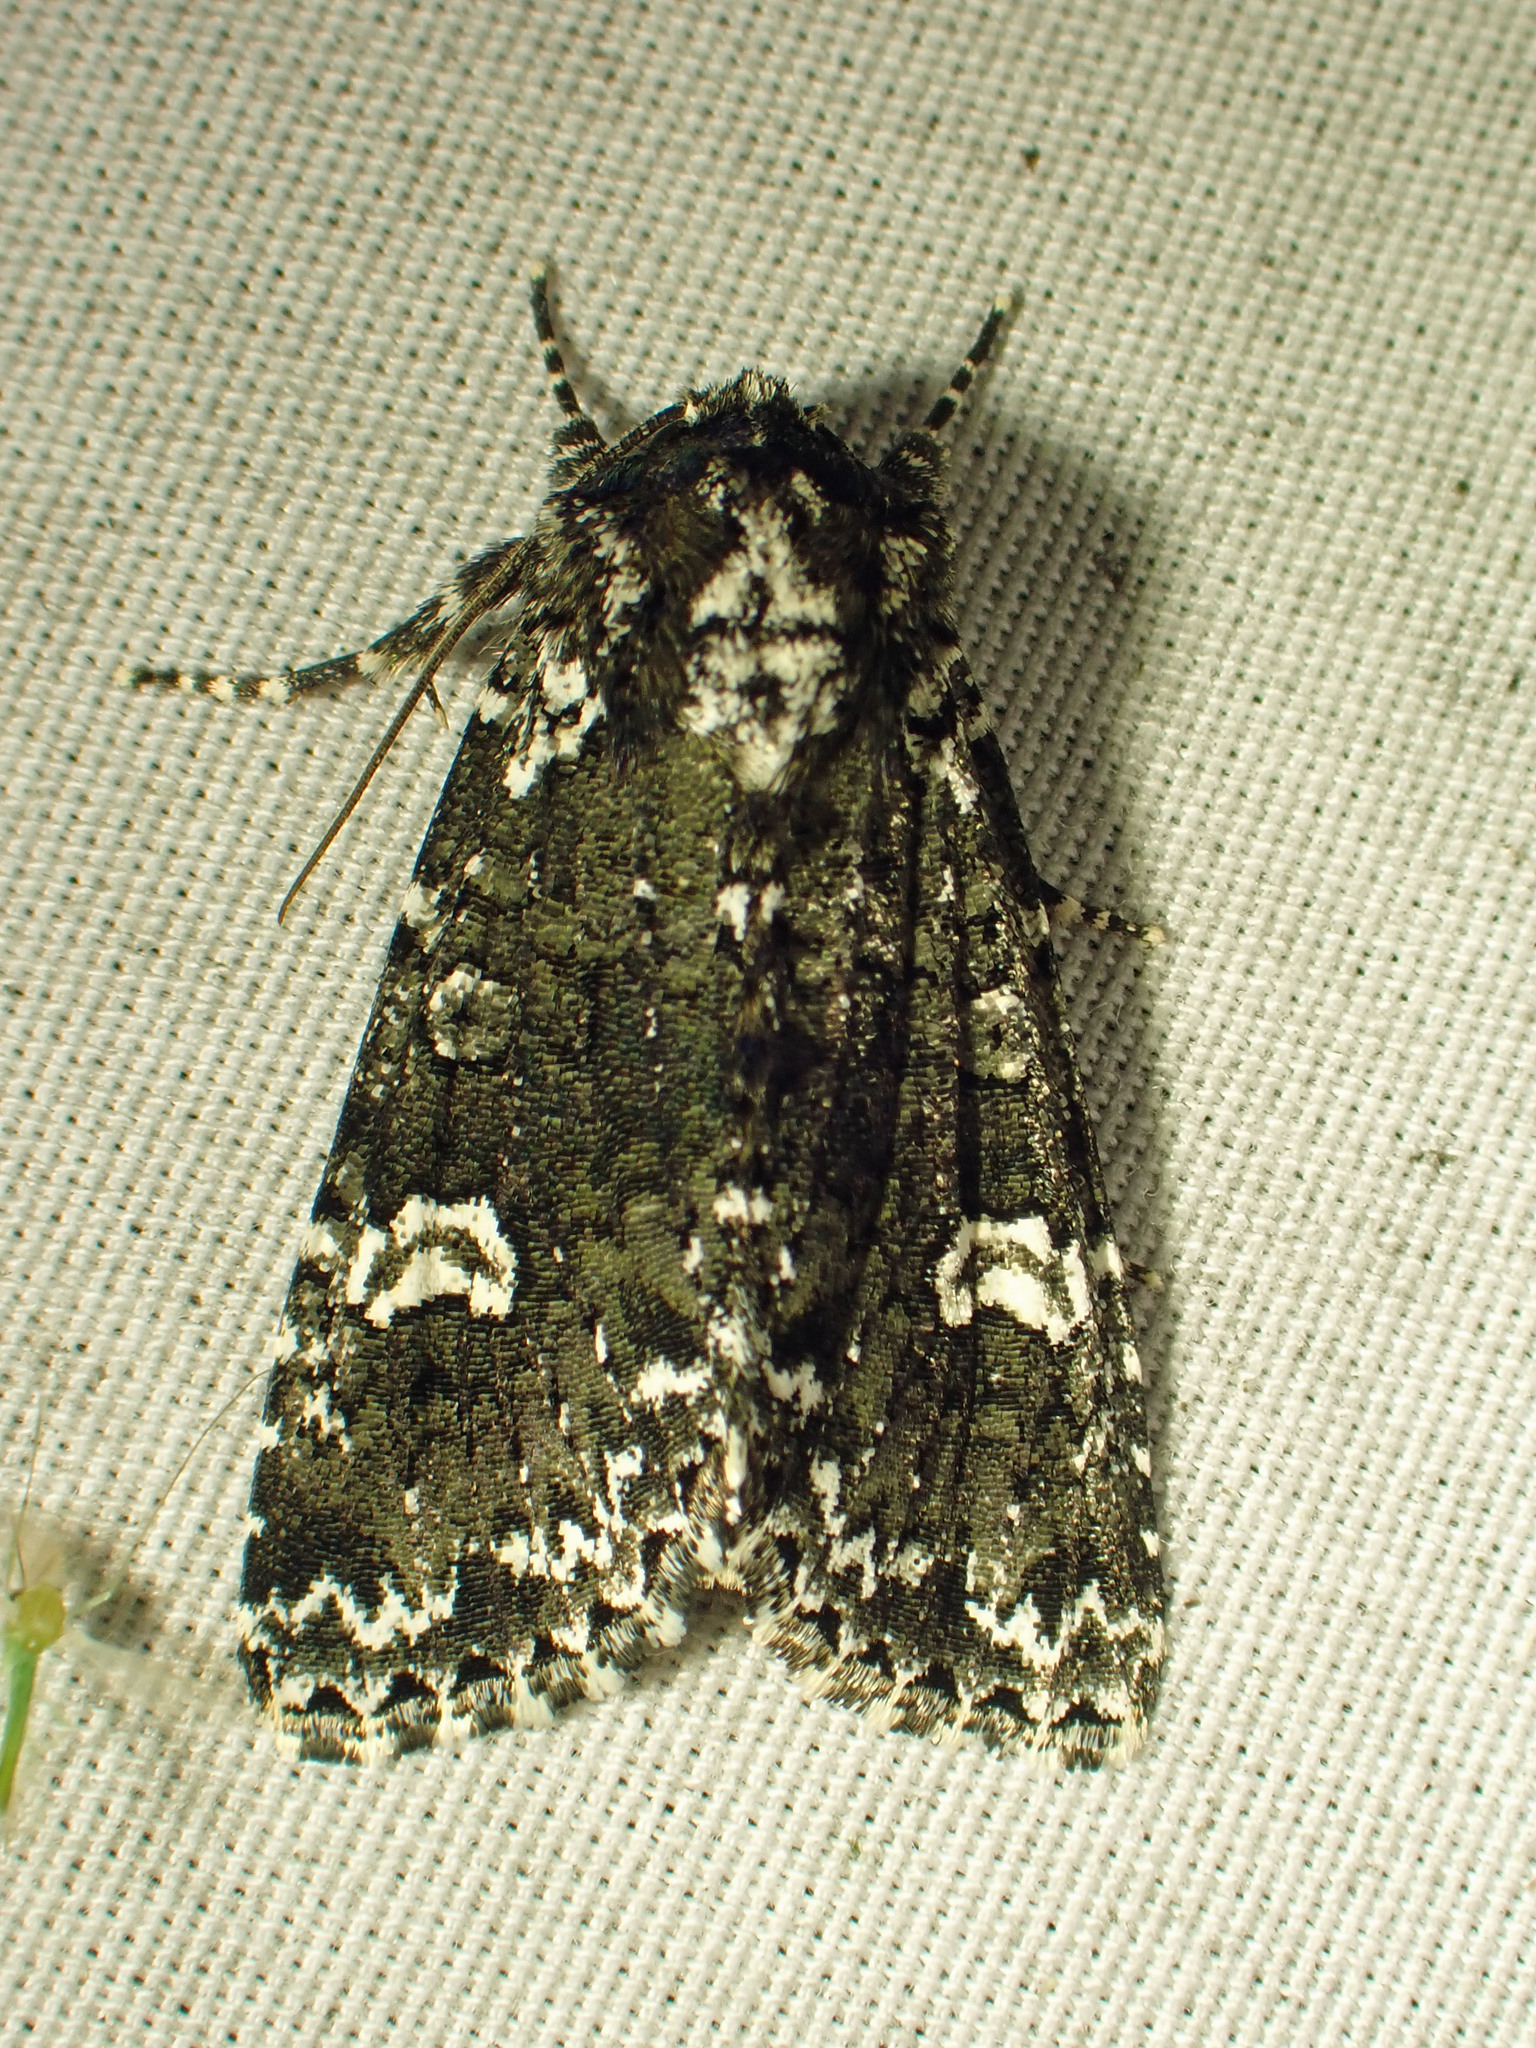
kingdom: Animalia
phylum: Arthropoda
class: Insecta
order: Lepidoptera
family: Noctuidae
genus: Melanchra
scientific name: Melanchra adjuncta
